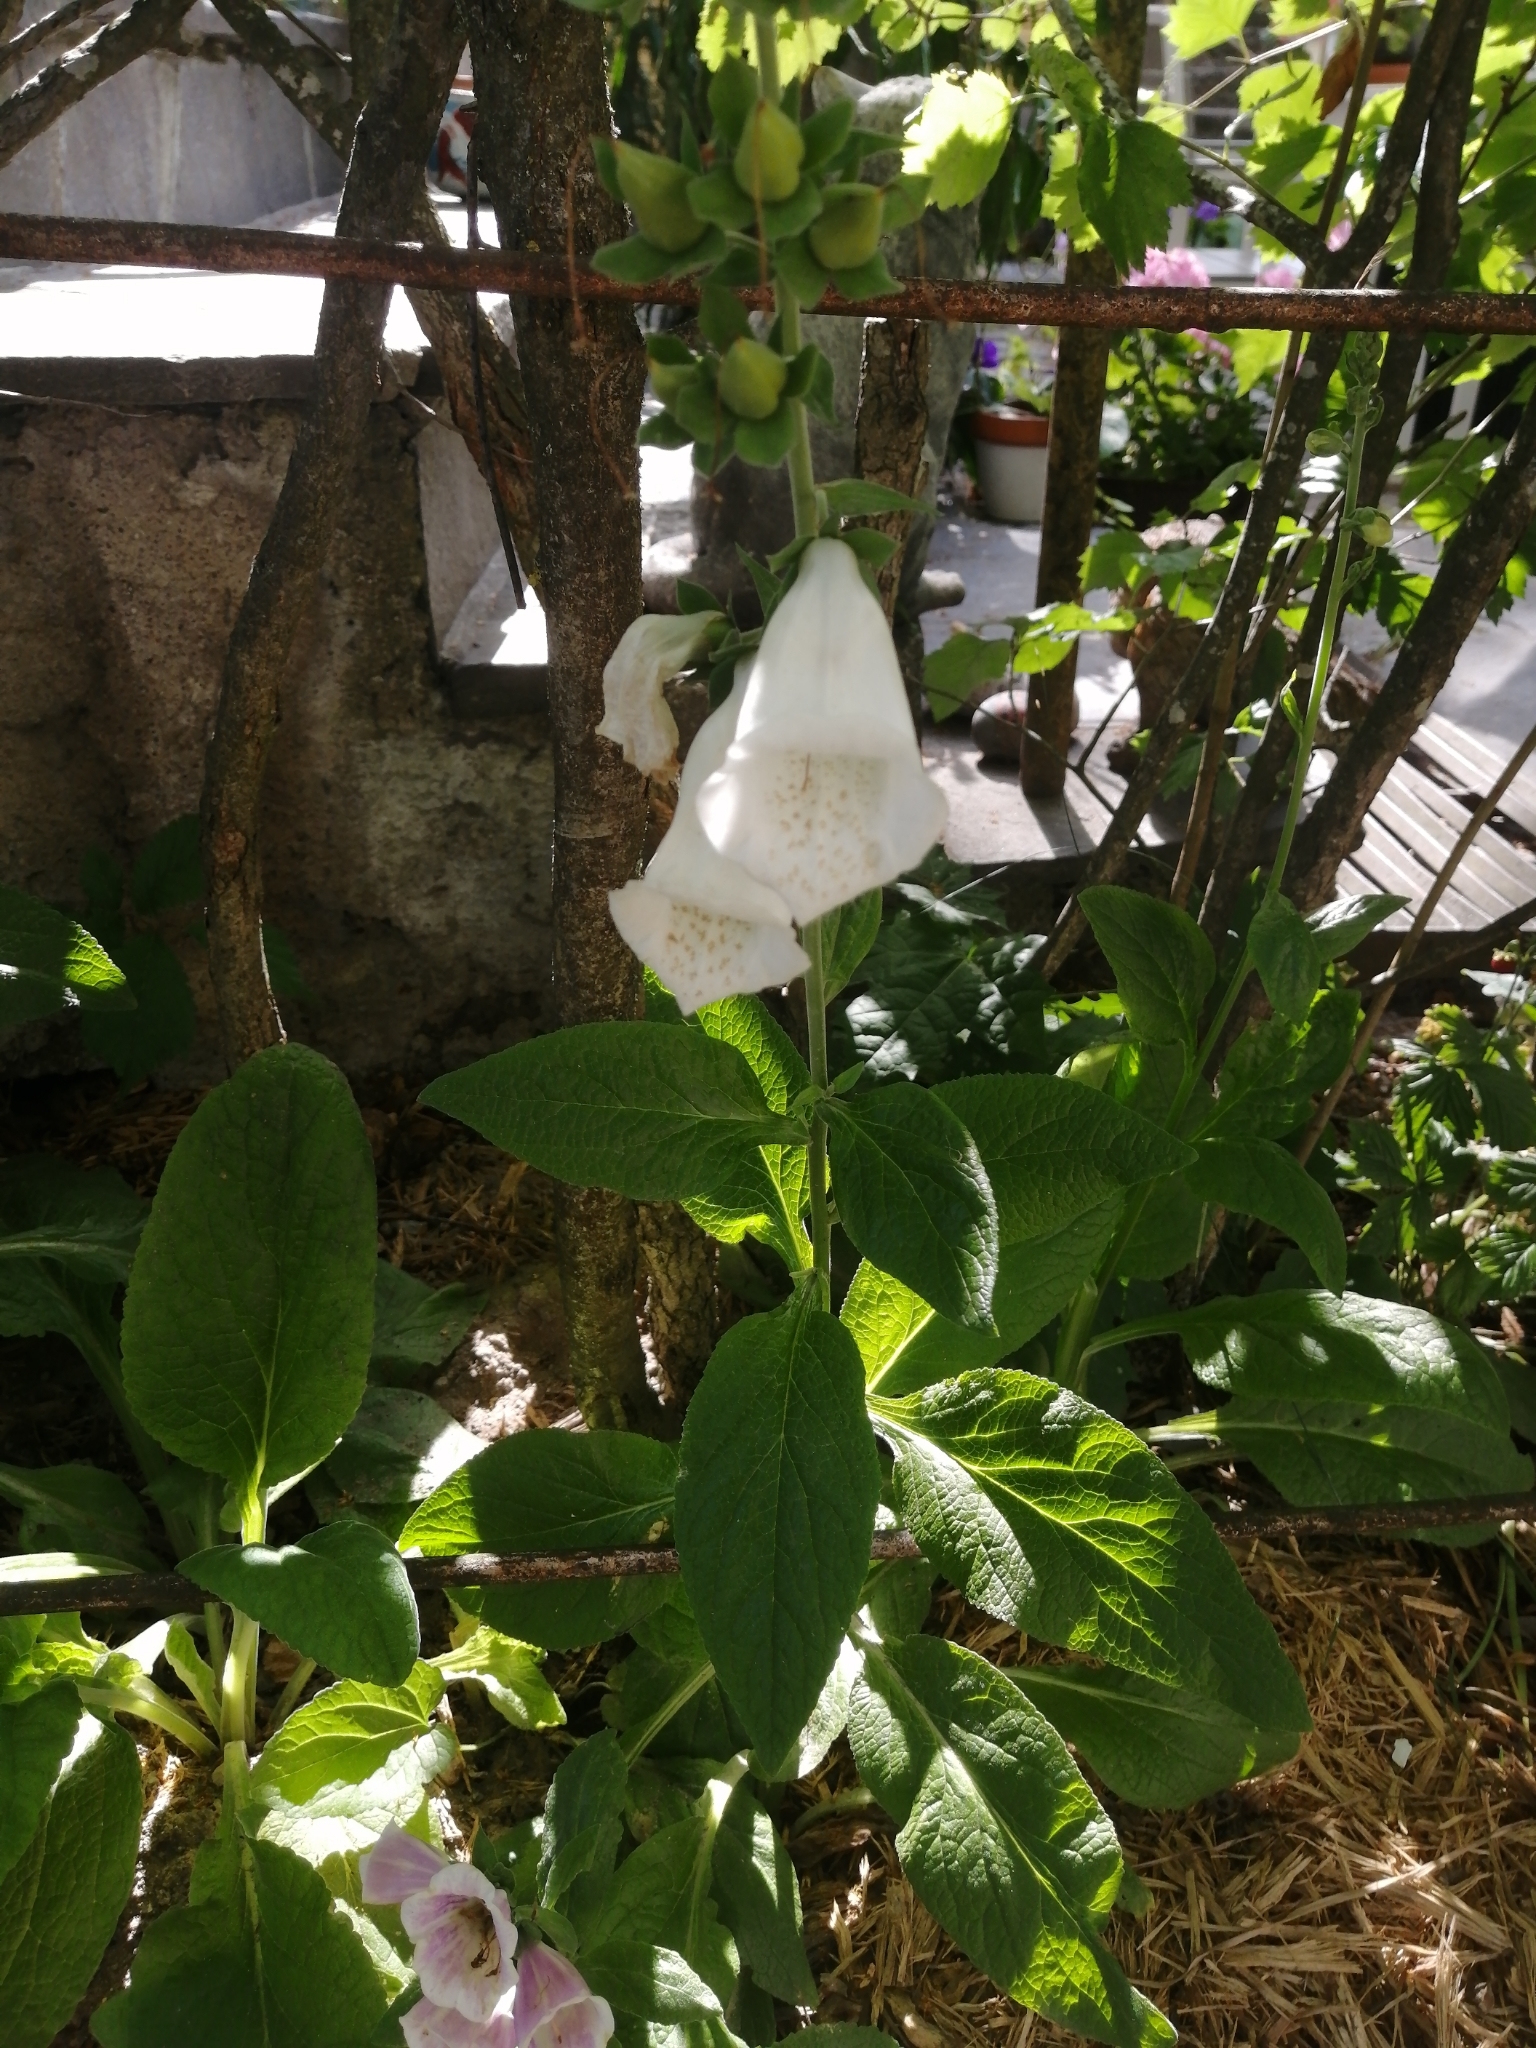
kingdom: Plantae
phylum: Tracheophyta
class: Magnoliopsida
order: Lamiales
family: Plantaginaceae
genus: Digitalis
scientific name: Digitalis purpurea
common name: Foxglove
